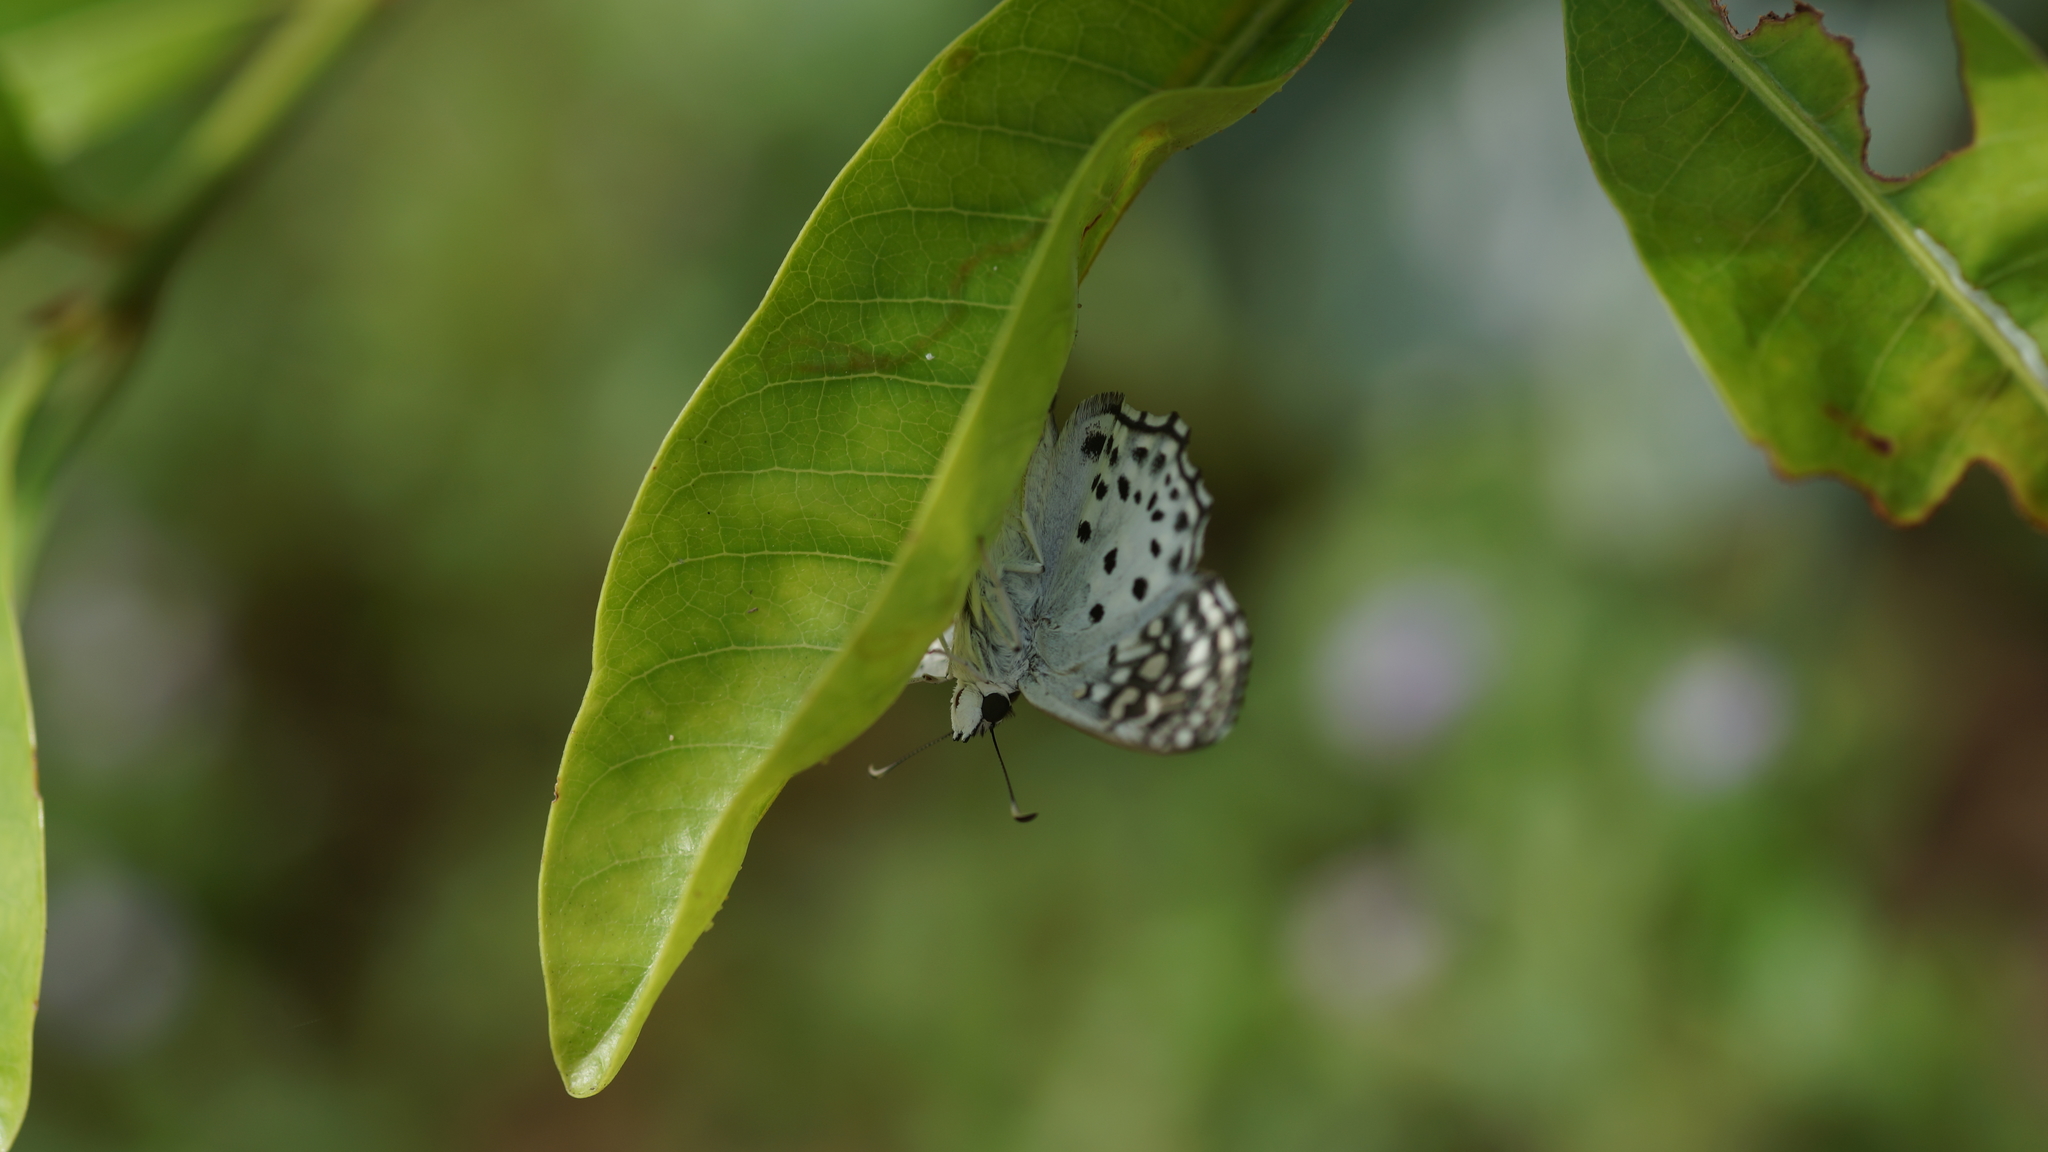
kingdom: Animalia
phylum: Arthropoda
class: Insecta
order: Lepidoptera
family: Hesperiidae
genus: Caprona
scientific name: Caprona alida
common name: Spotted angle
